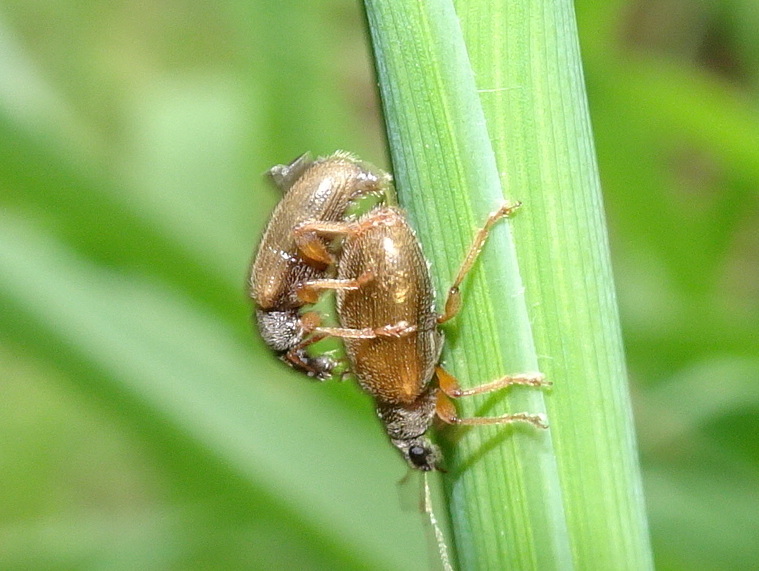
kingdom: Animalia
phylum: Arthropoda
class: Insecta
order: Coleoptera
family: Curculionidae
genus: Phyllobius
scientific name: Phyllobius oblongus
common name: Brown leaf weevil
